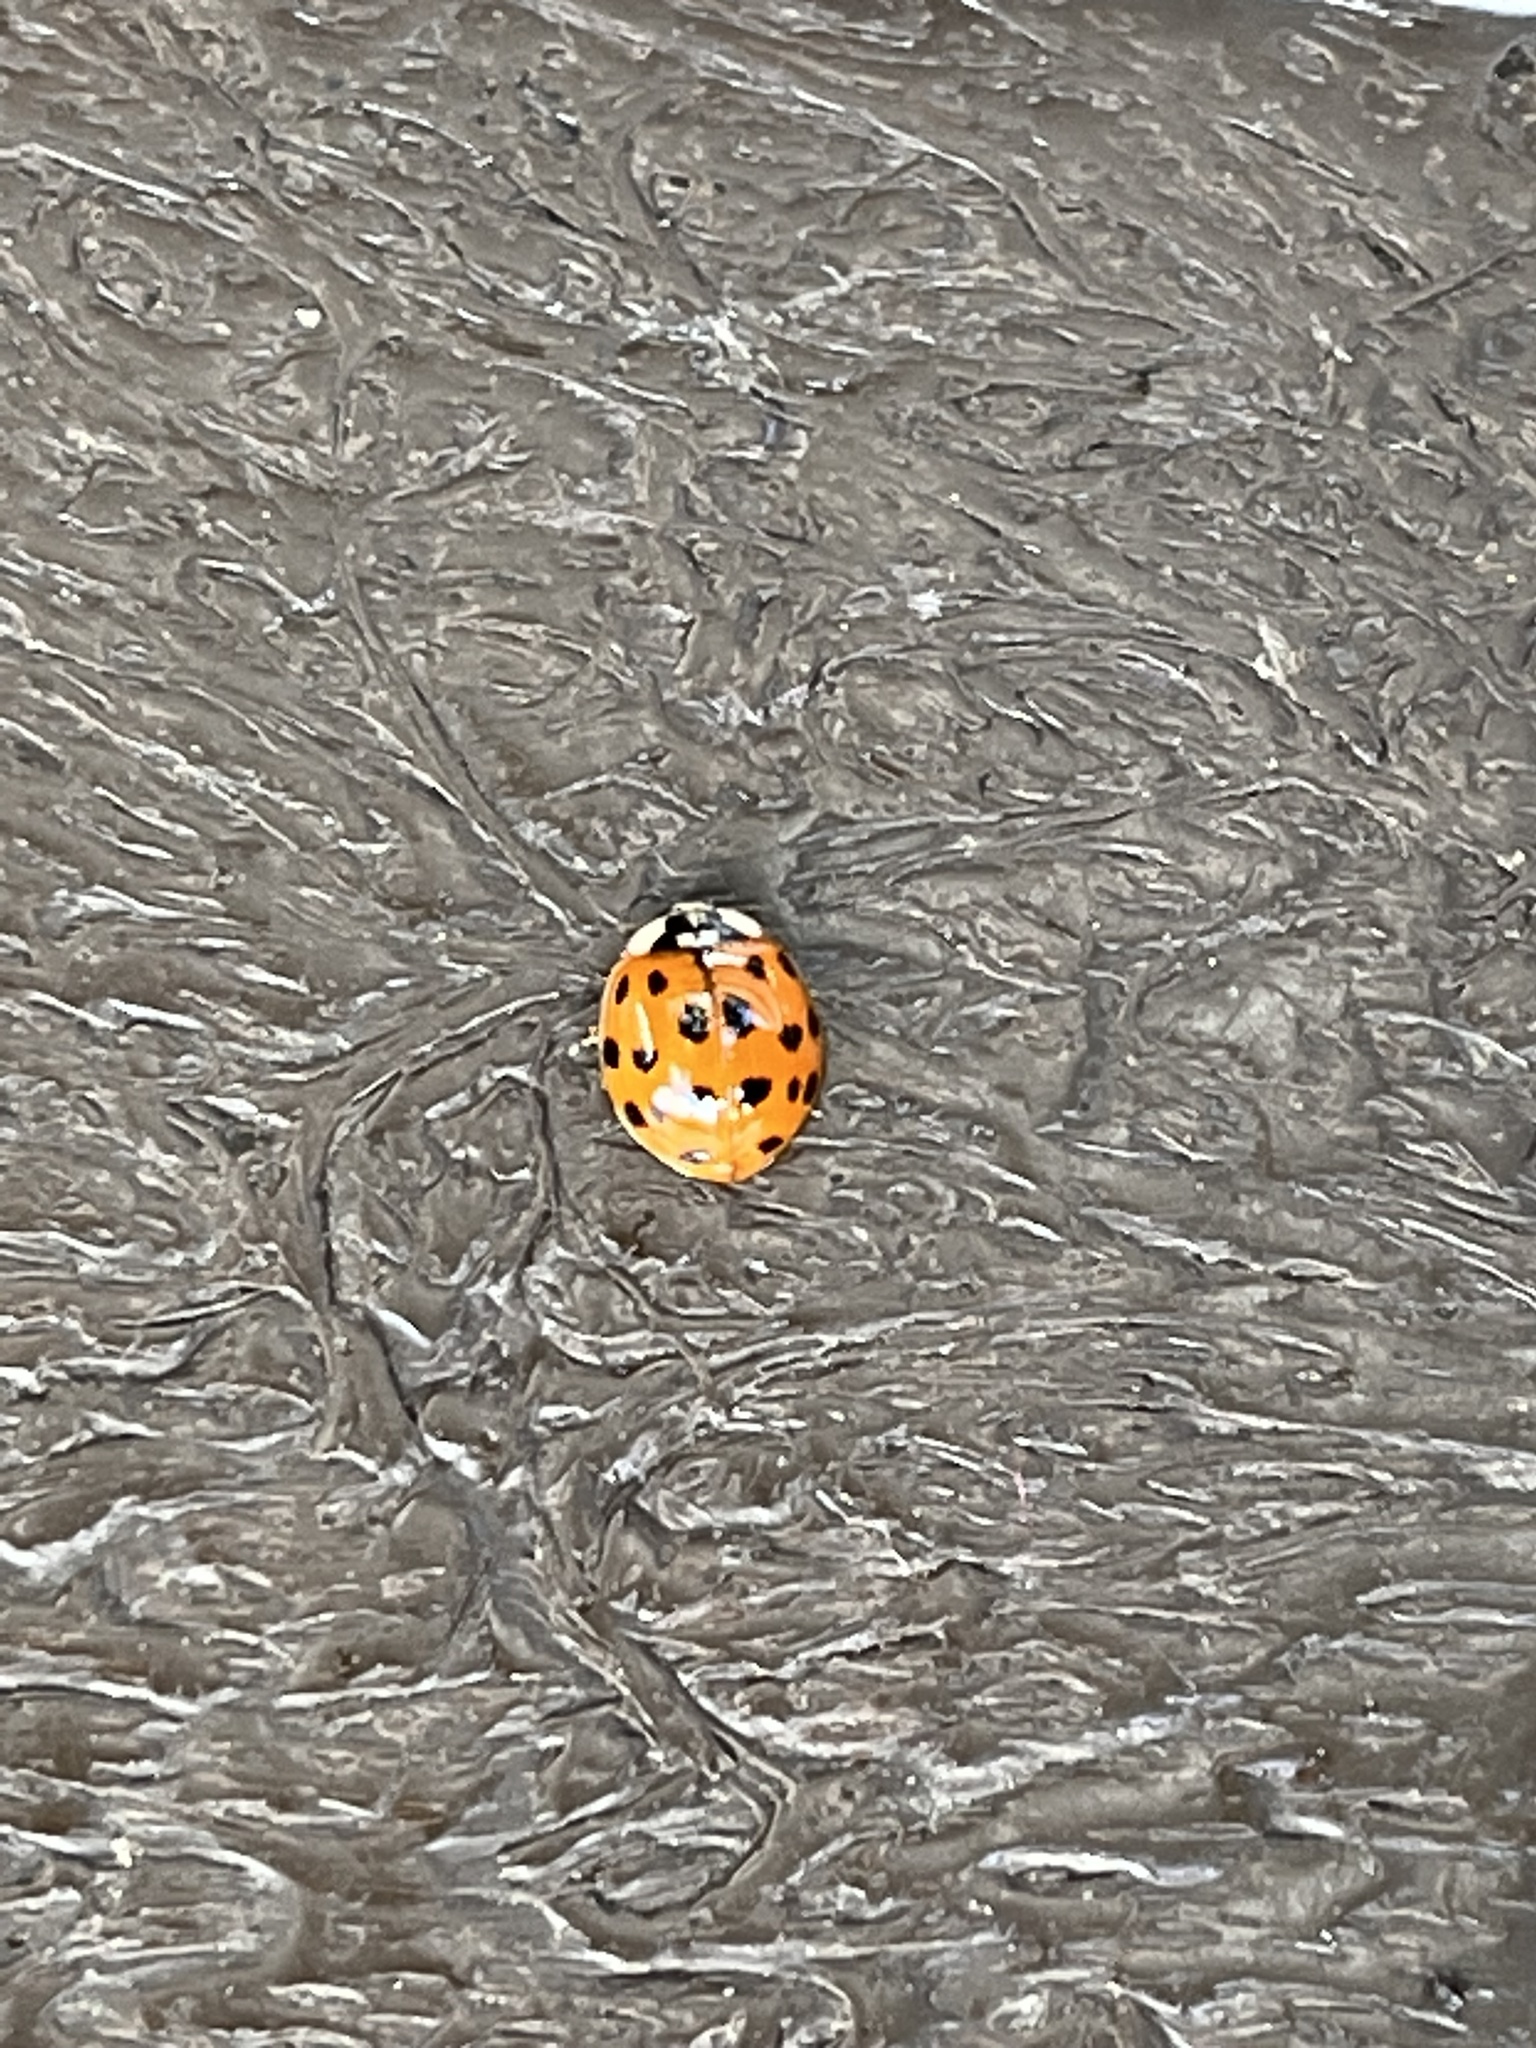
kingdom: Animalia
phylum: Arthropoda
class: Insecta
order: Coleoptera
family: Coccinellidae
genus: Harmonia
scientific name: Harmonia axyridis
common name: Harlequin ladybird
